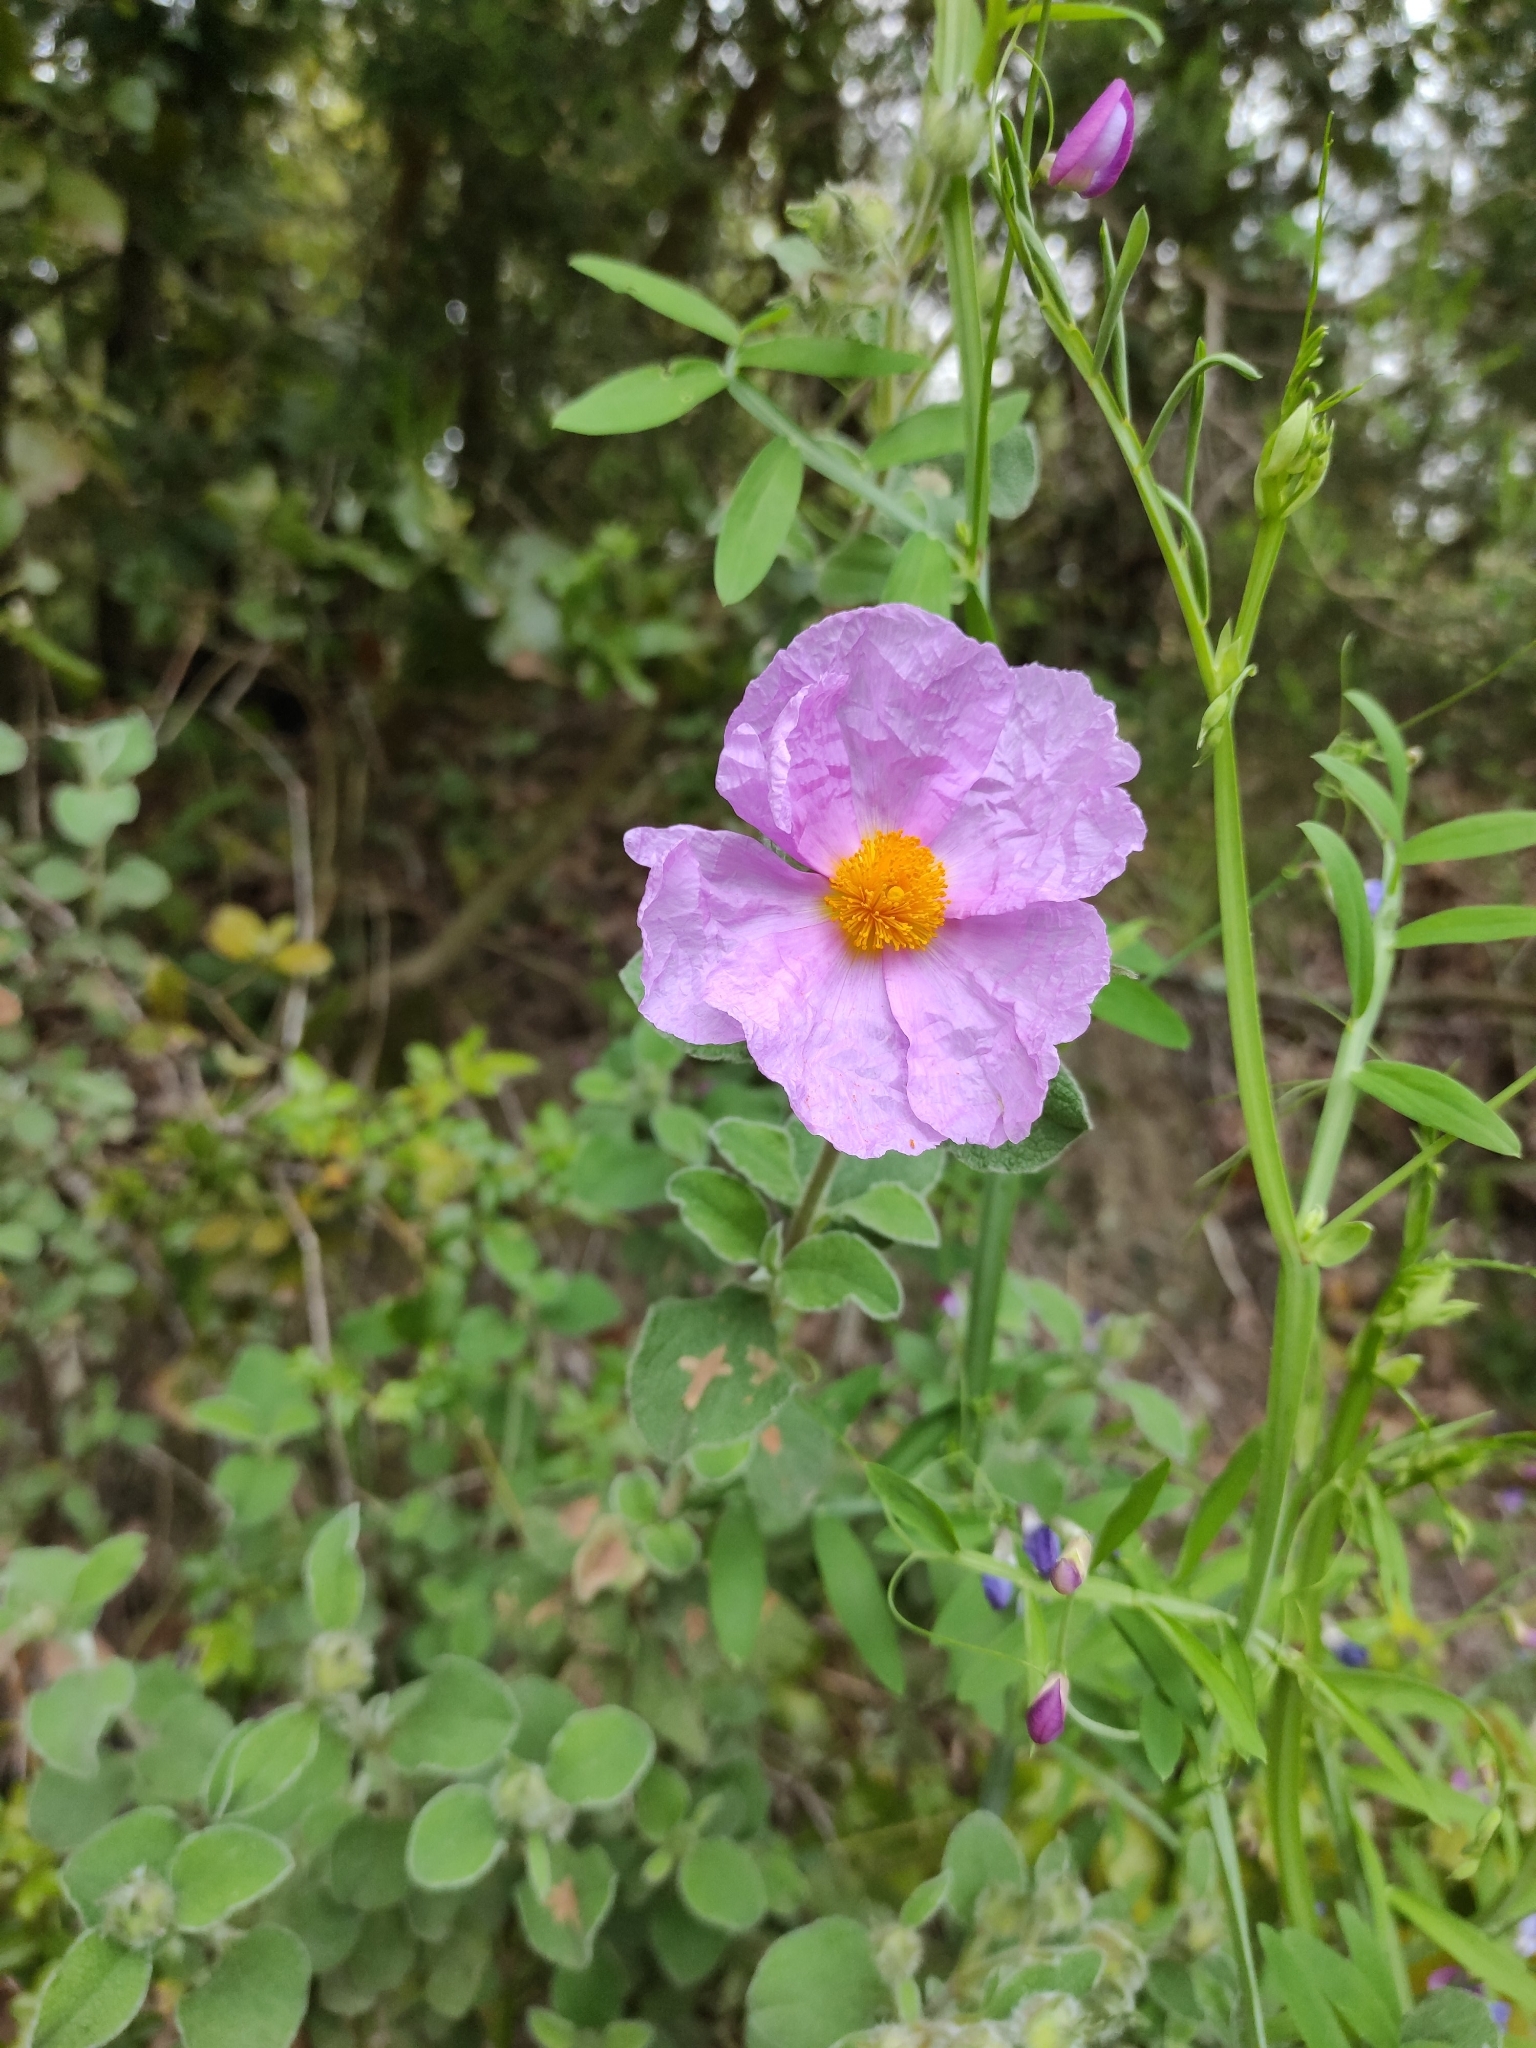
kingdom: Plantae
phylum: Tracheophyta
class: Magnoliopsida
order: Malvales
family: Cistaceae
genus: Cistus
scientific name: Cistus creticus
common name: Cretan rockrose
